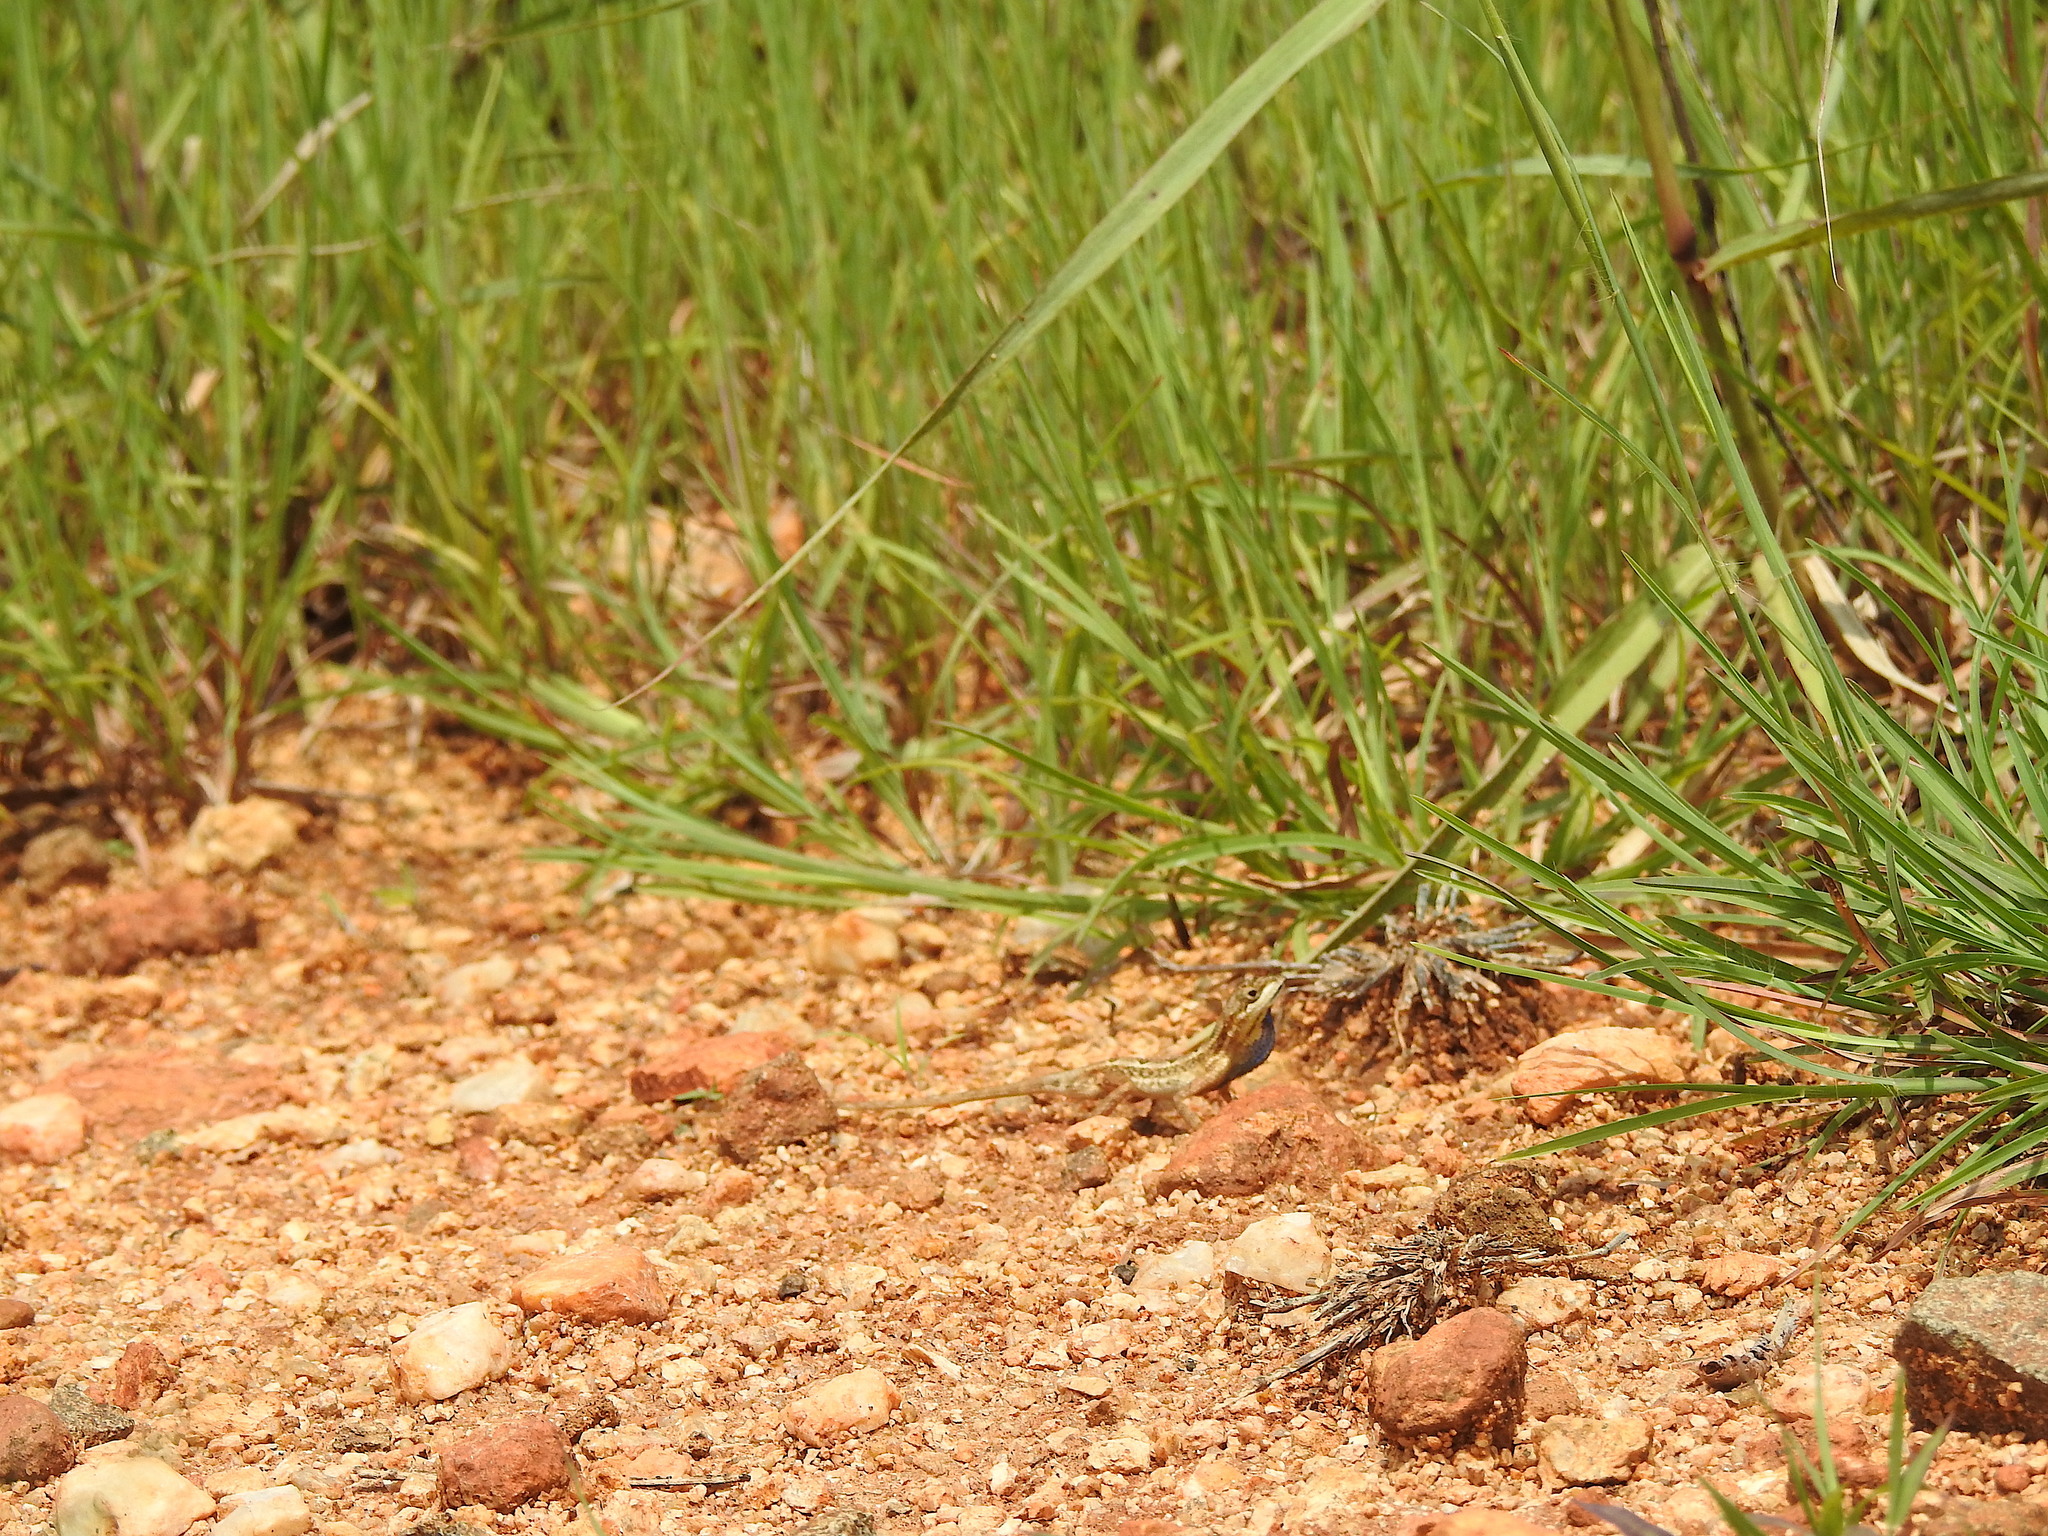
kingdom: Animalia
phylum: Chordata
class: Squamata
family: Agamidae
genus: Sitana
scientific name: Sitana ponticeriana
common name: Pondichéry fan throated lizard
